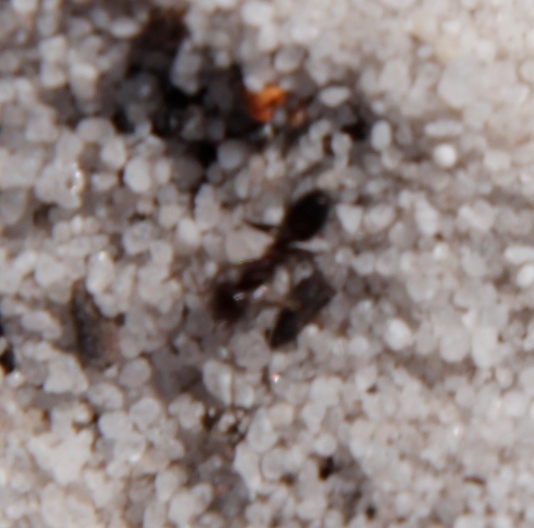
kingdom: Animalia
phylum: Arthropoda
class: Insecta
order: Hymenoptera
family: Formicidae
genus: Anoplolepis
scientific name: Anoplolepis steingroeveri
